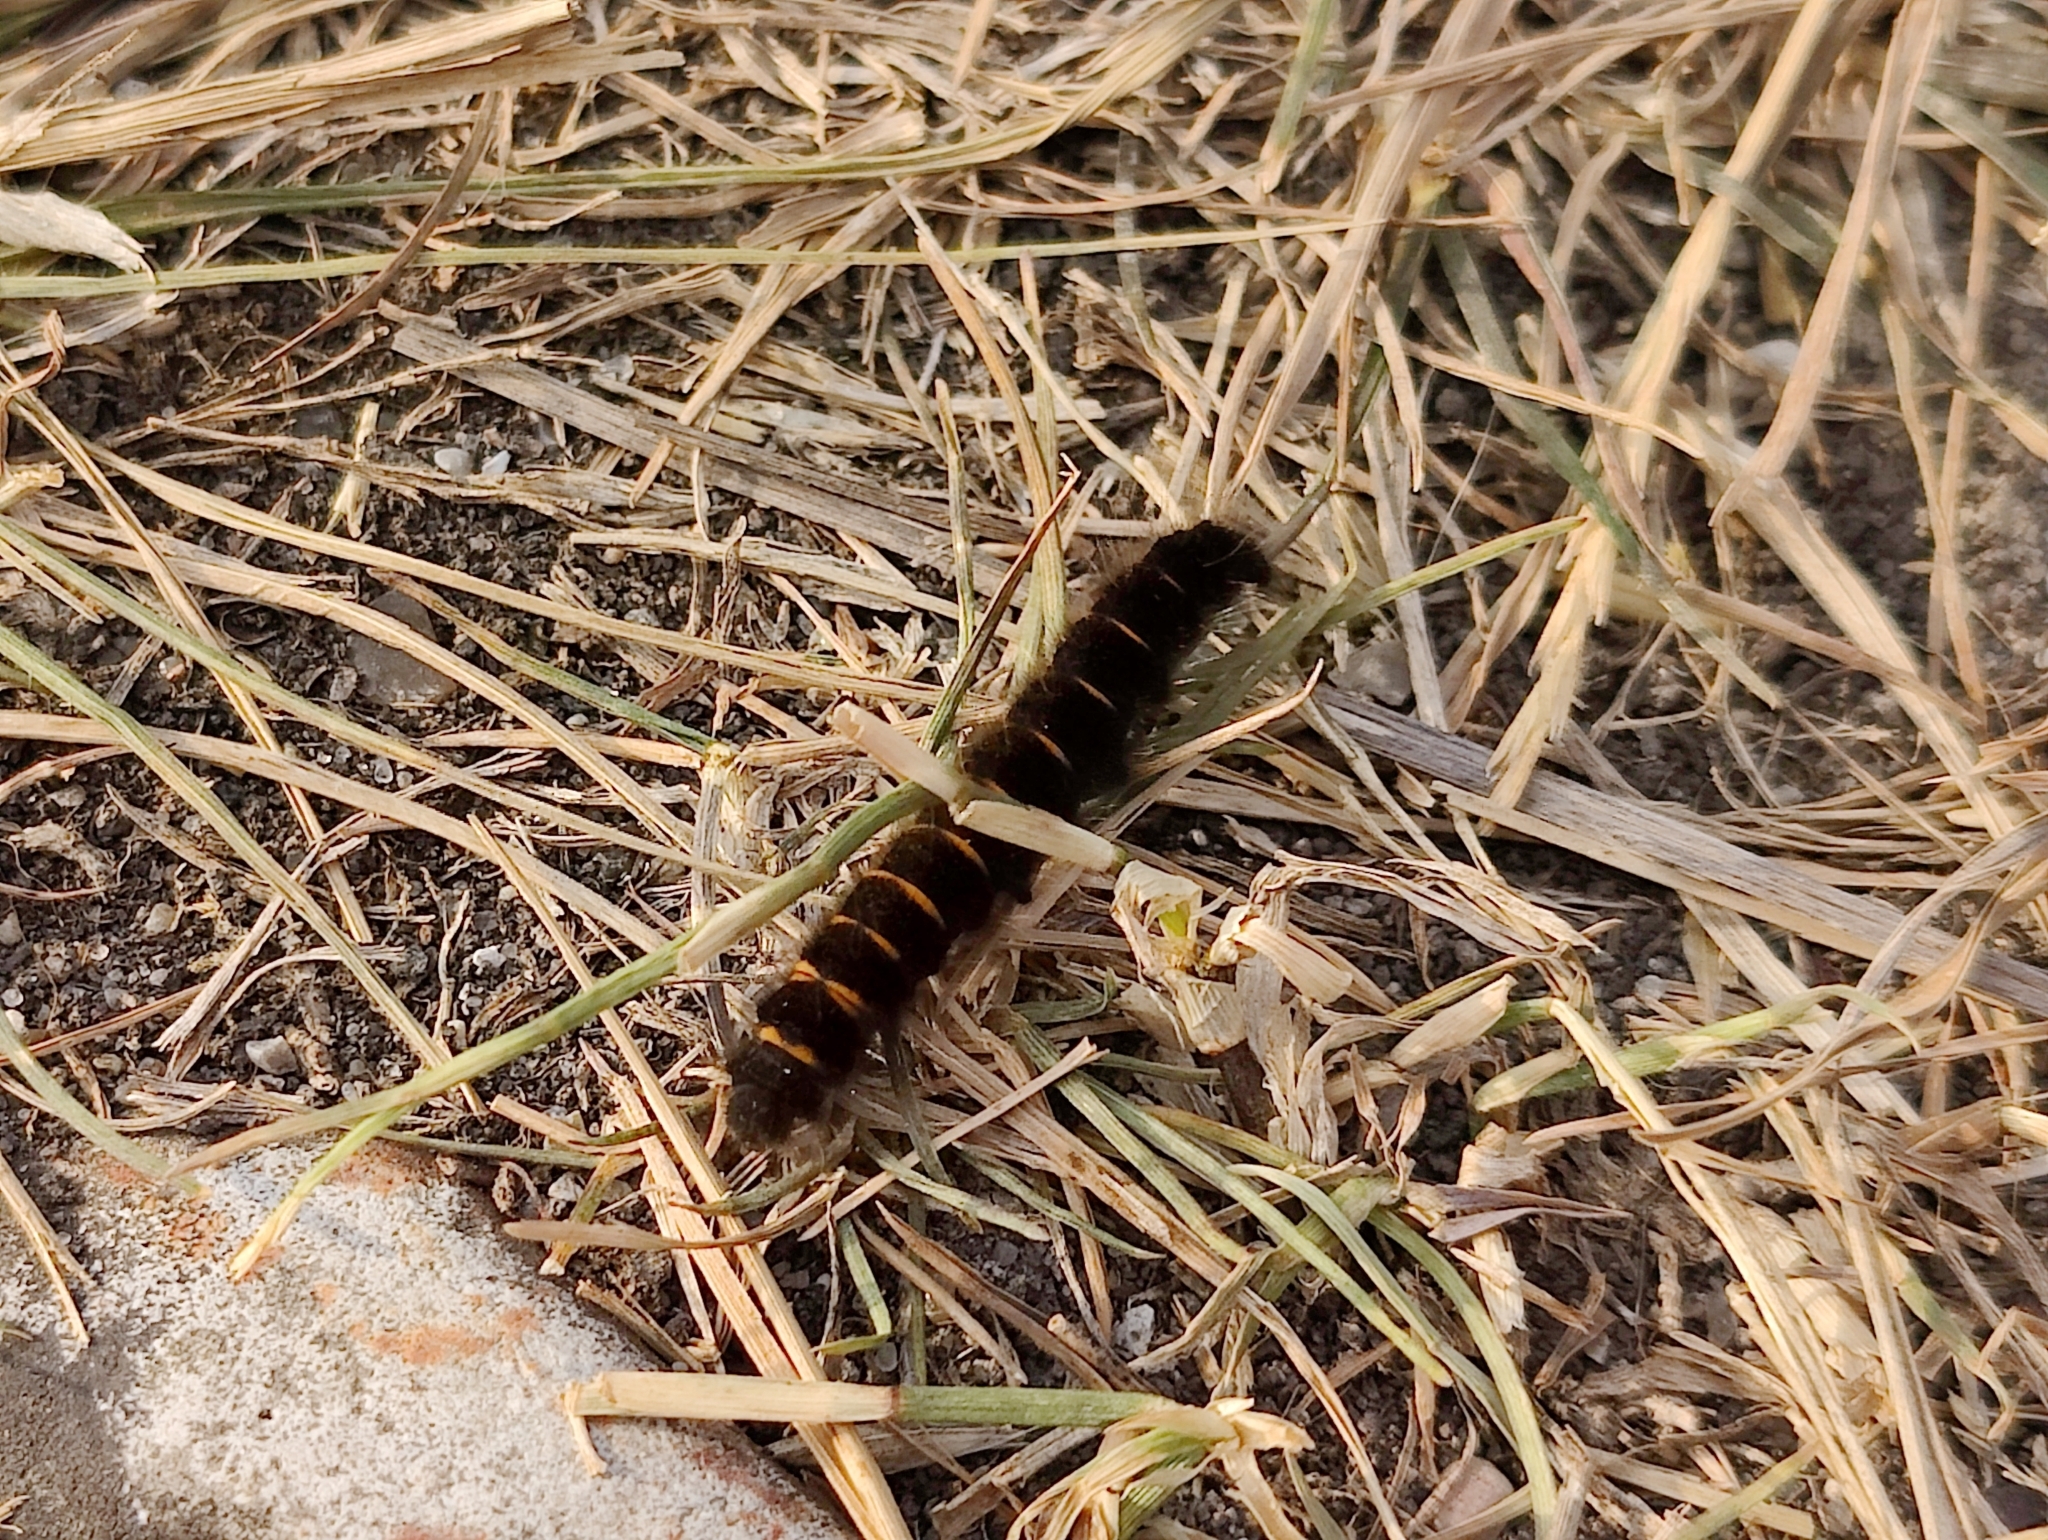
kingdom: Animalia
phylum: Arthropoda
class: Insecta
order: Lepidoptera
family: Lasiocampidae
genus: Macrothylacia
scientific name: Macrothylacia rubi
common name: Fox moth
